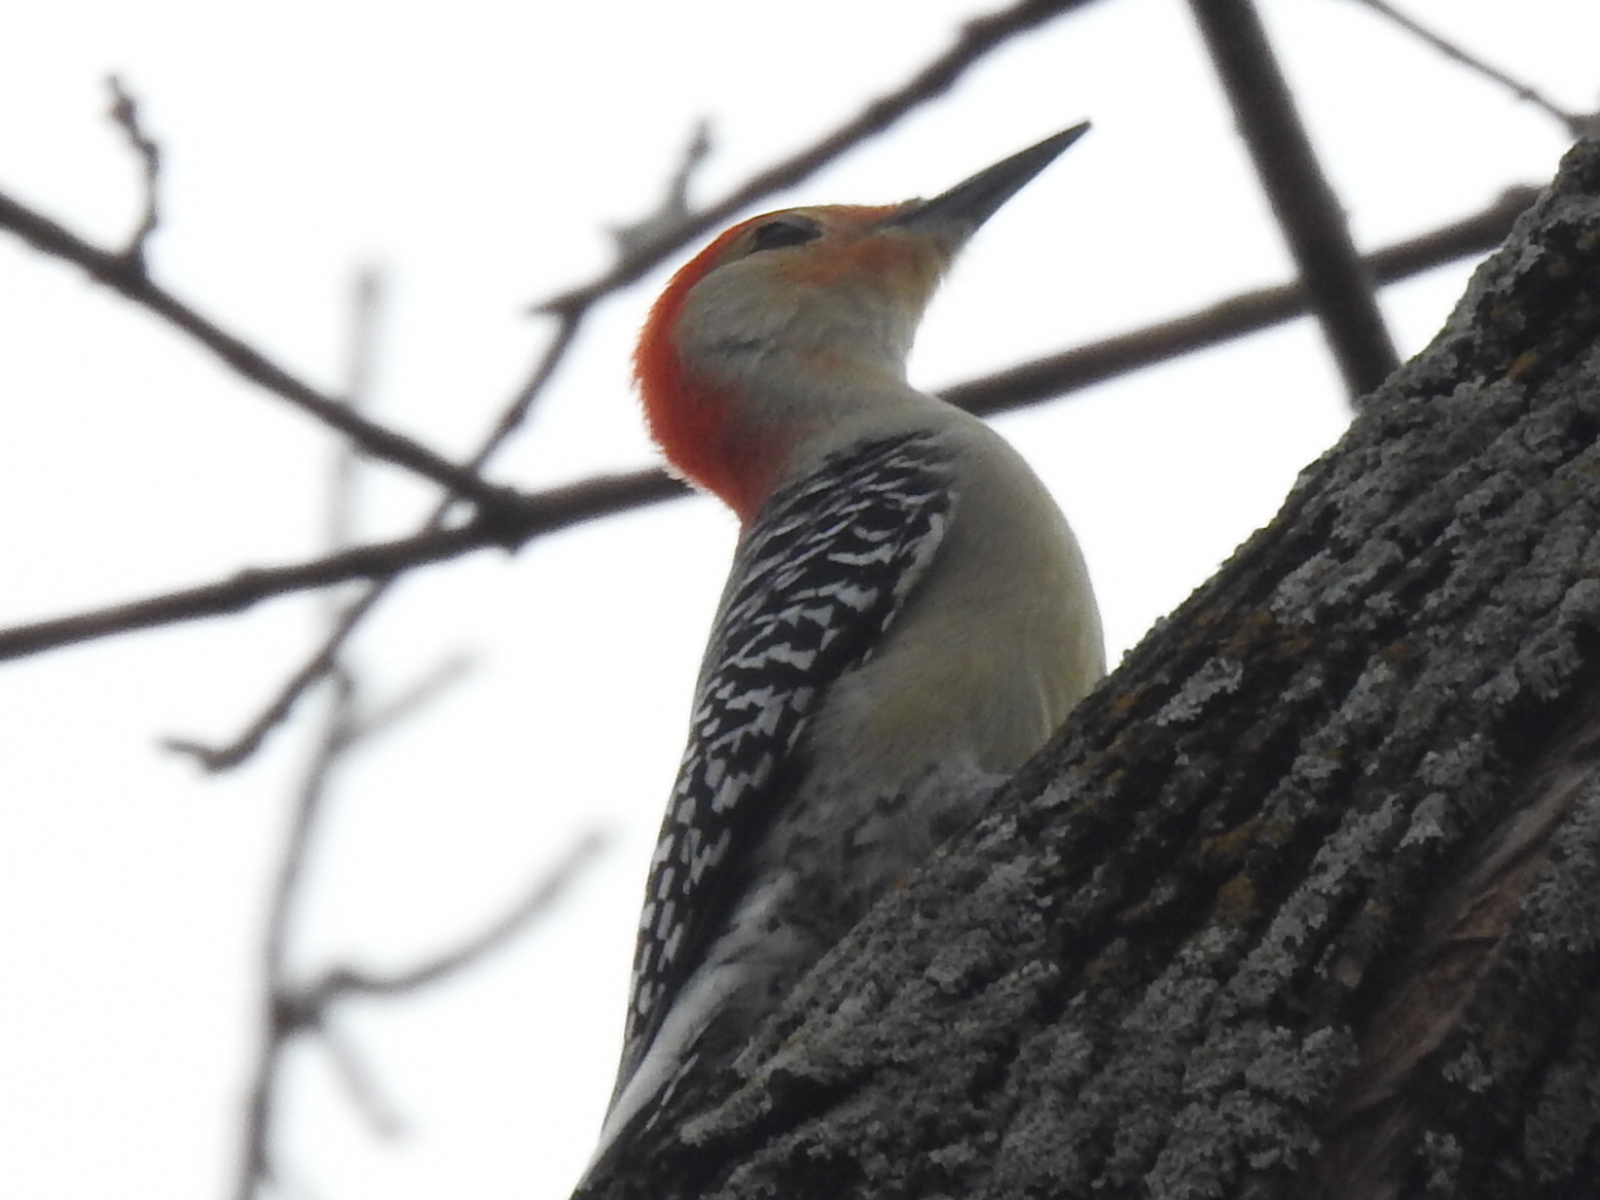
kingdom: Animalia
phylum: Chordata
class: Aves
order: Piciformes
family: Picidae
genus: Melanerpes
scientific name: Melanerpes carolinus
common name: Red-bellied woodpecker
